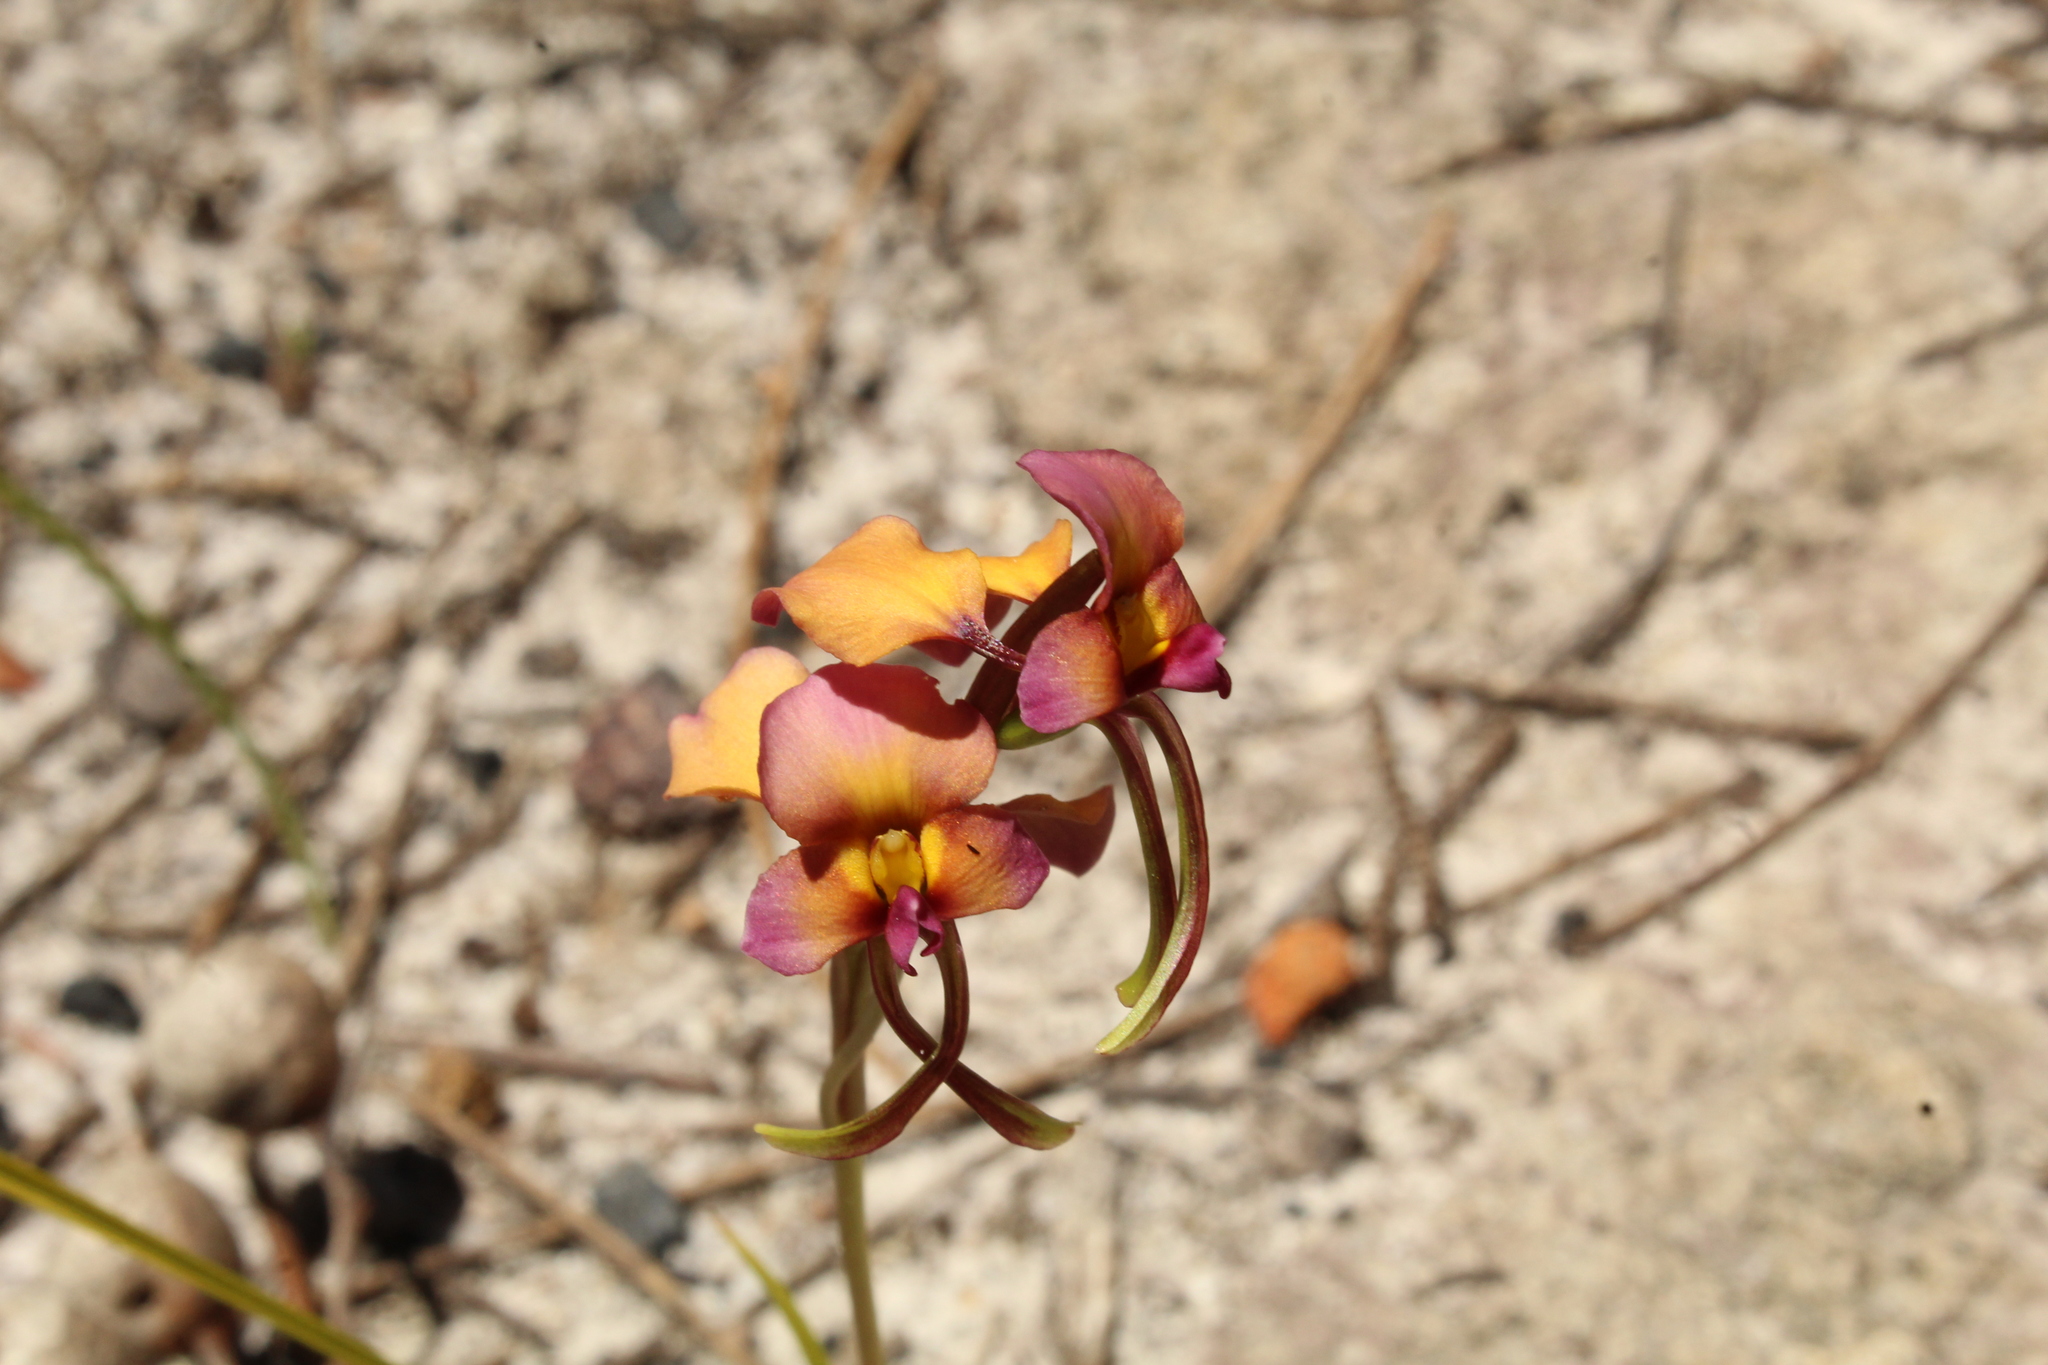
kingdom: Plantae
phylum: Tracheophyta
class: Liliopsida
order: Asparagales
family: Orchidaceae
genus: Diuris
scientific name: Diuris longifolia
